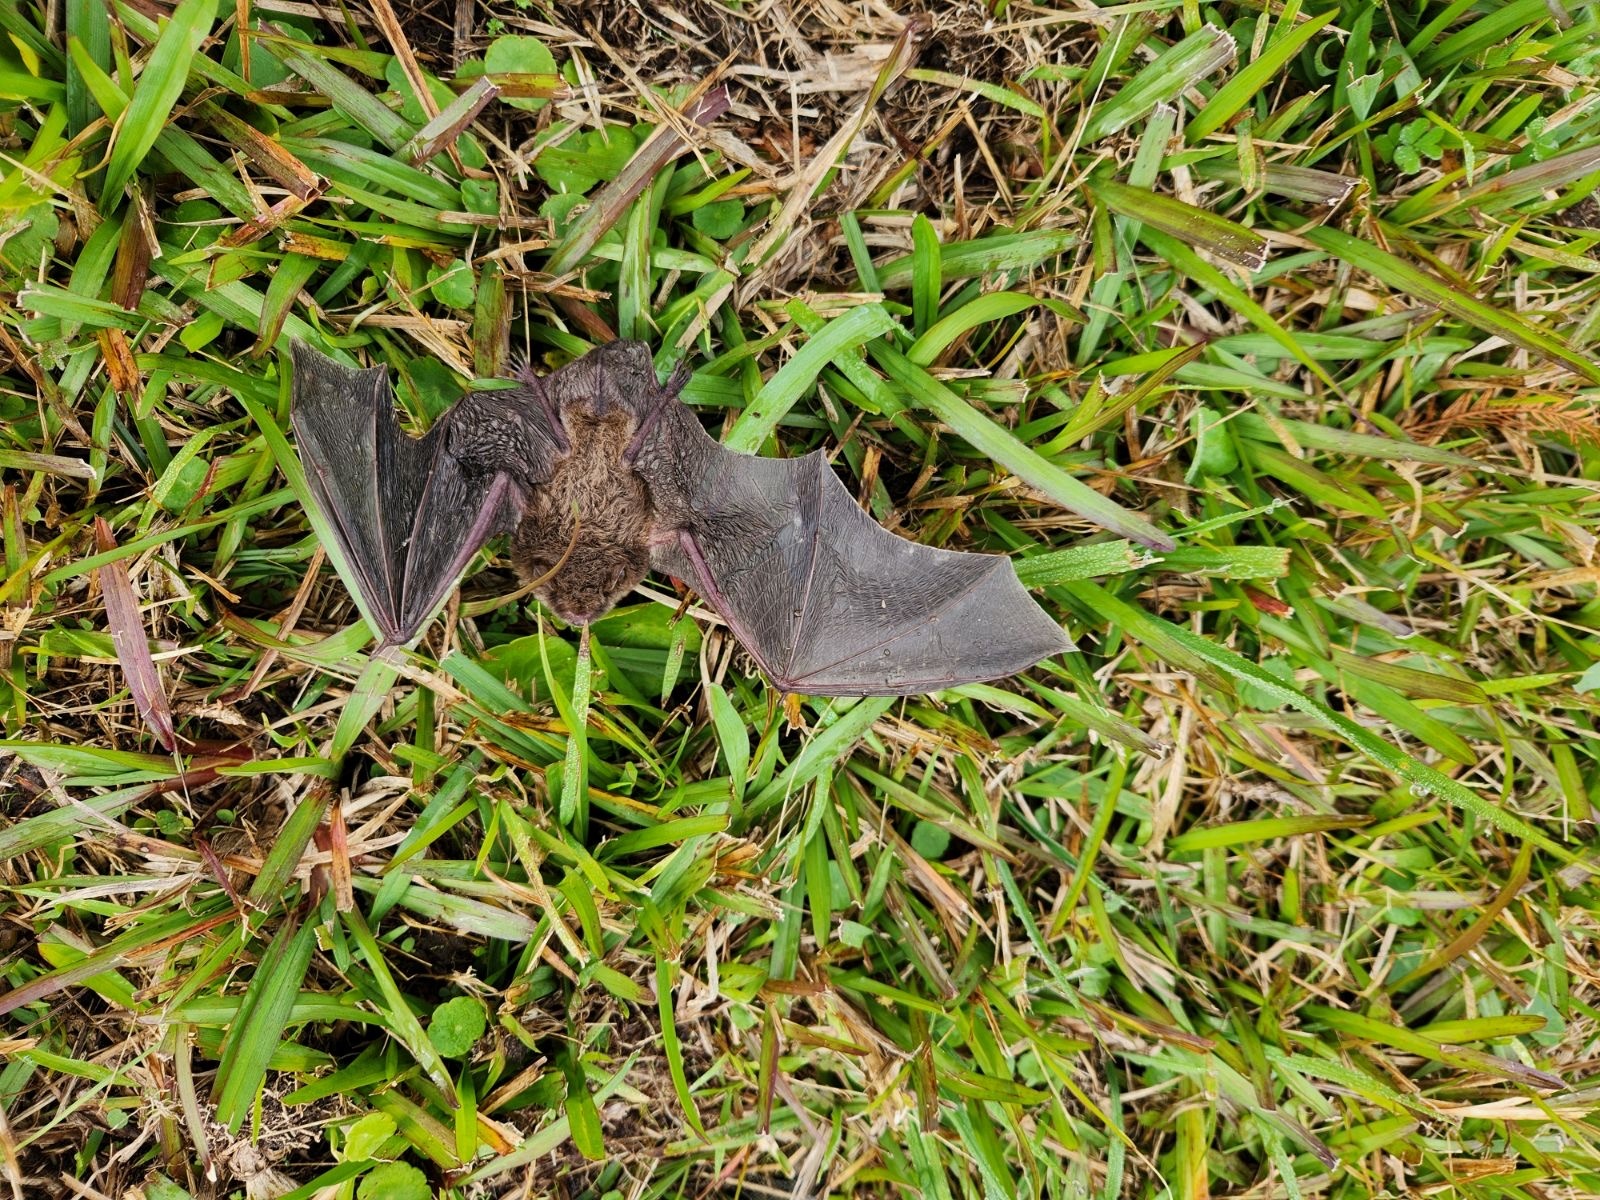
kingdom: Animalia
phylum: Chordata
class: Mammalia
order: Chiroptera
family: Vespertilionidae
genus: Myotis
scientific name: Myotis austroriparius
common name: Southeastern myotis
